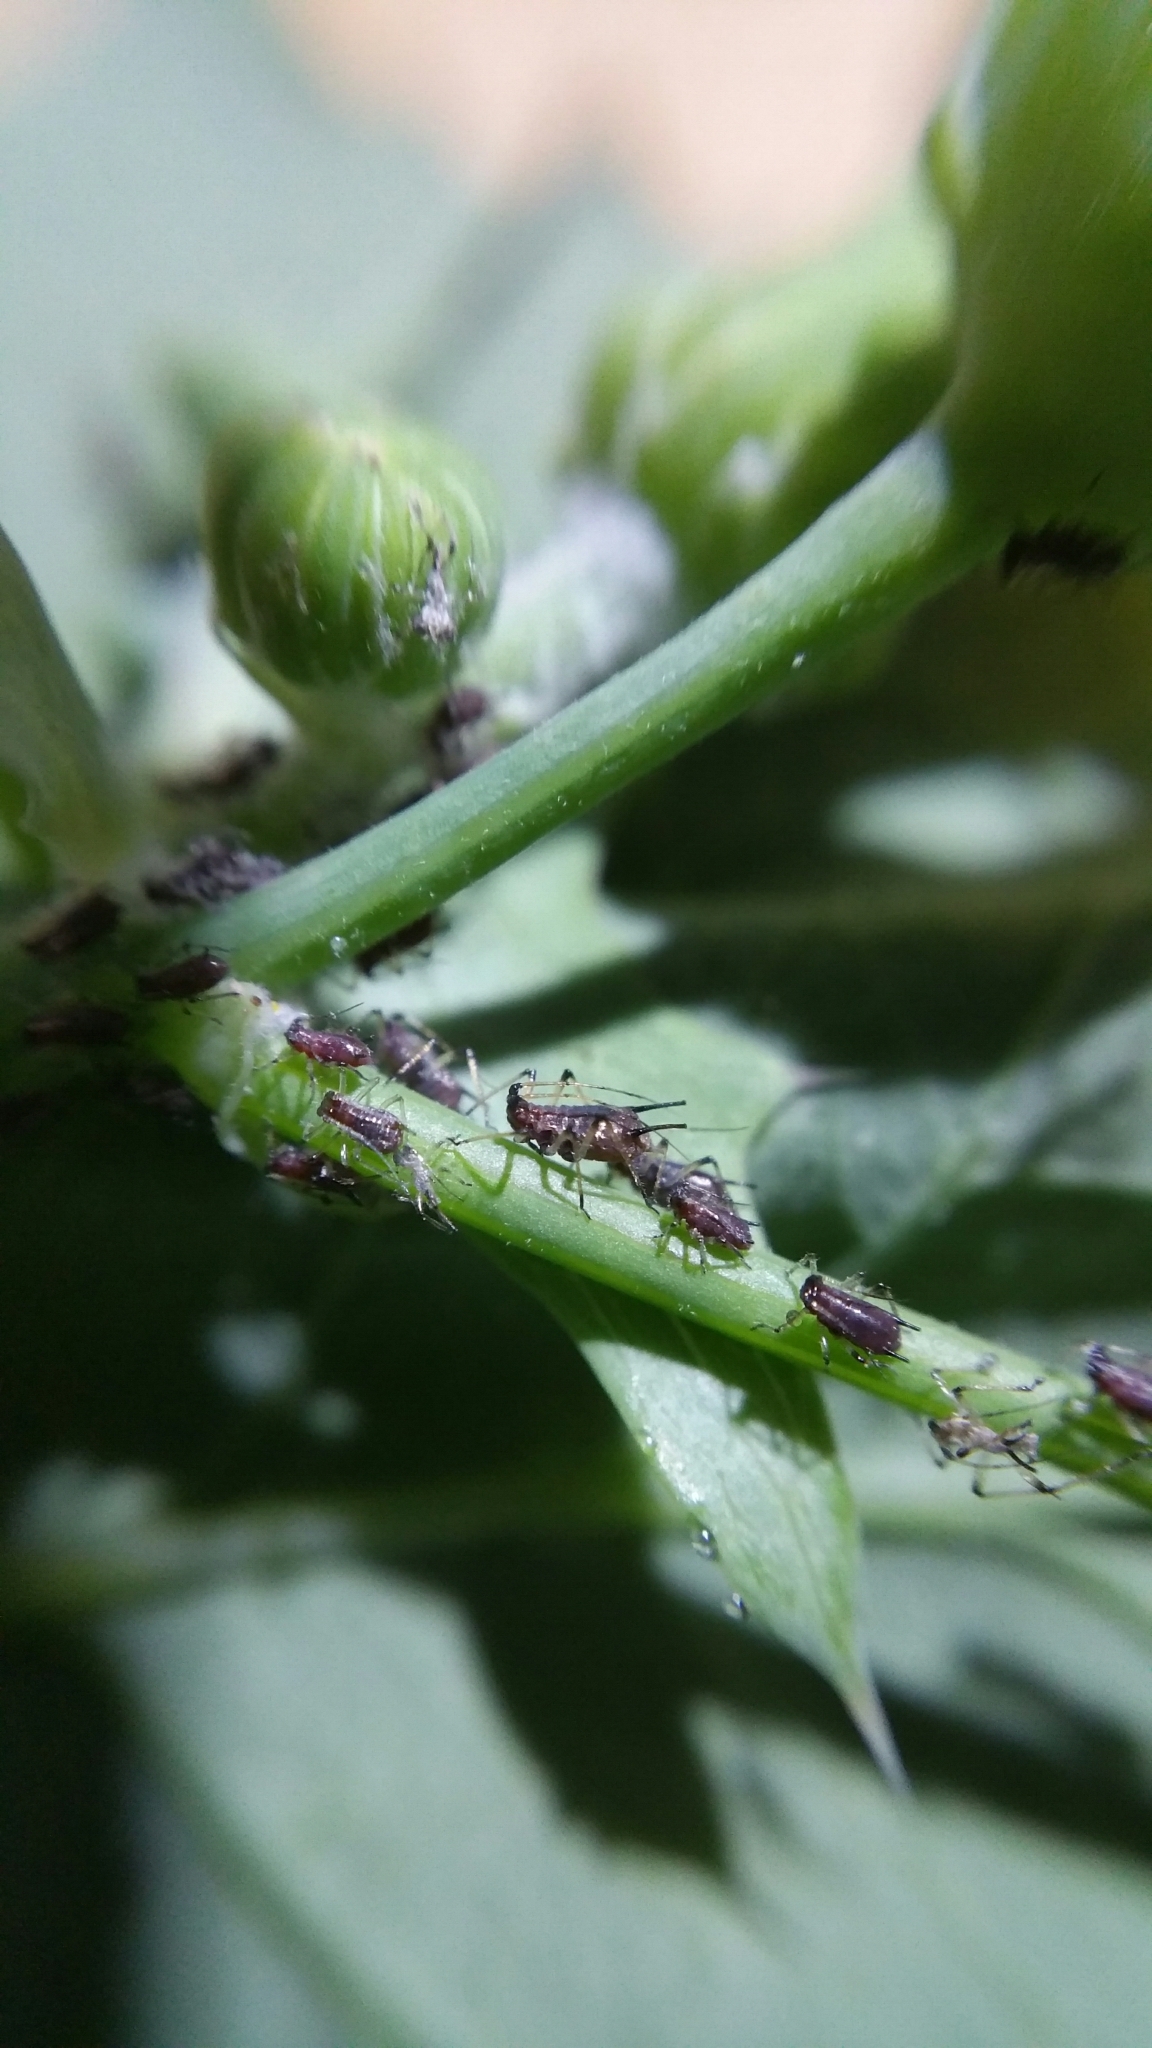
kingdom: Animalia
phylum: Arthropoda
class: Insecta
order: Hemiptera
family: Aphididae
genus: Uroleucon
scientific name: Uroleucon sonchi
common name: Large sowthistle aphid
